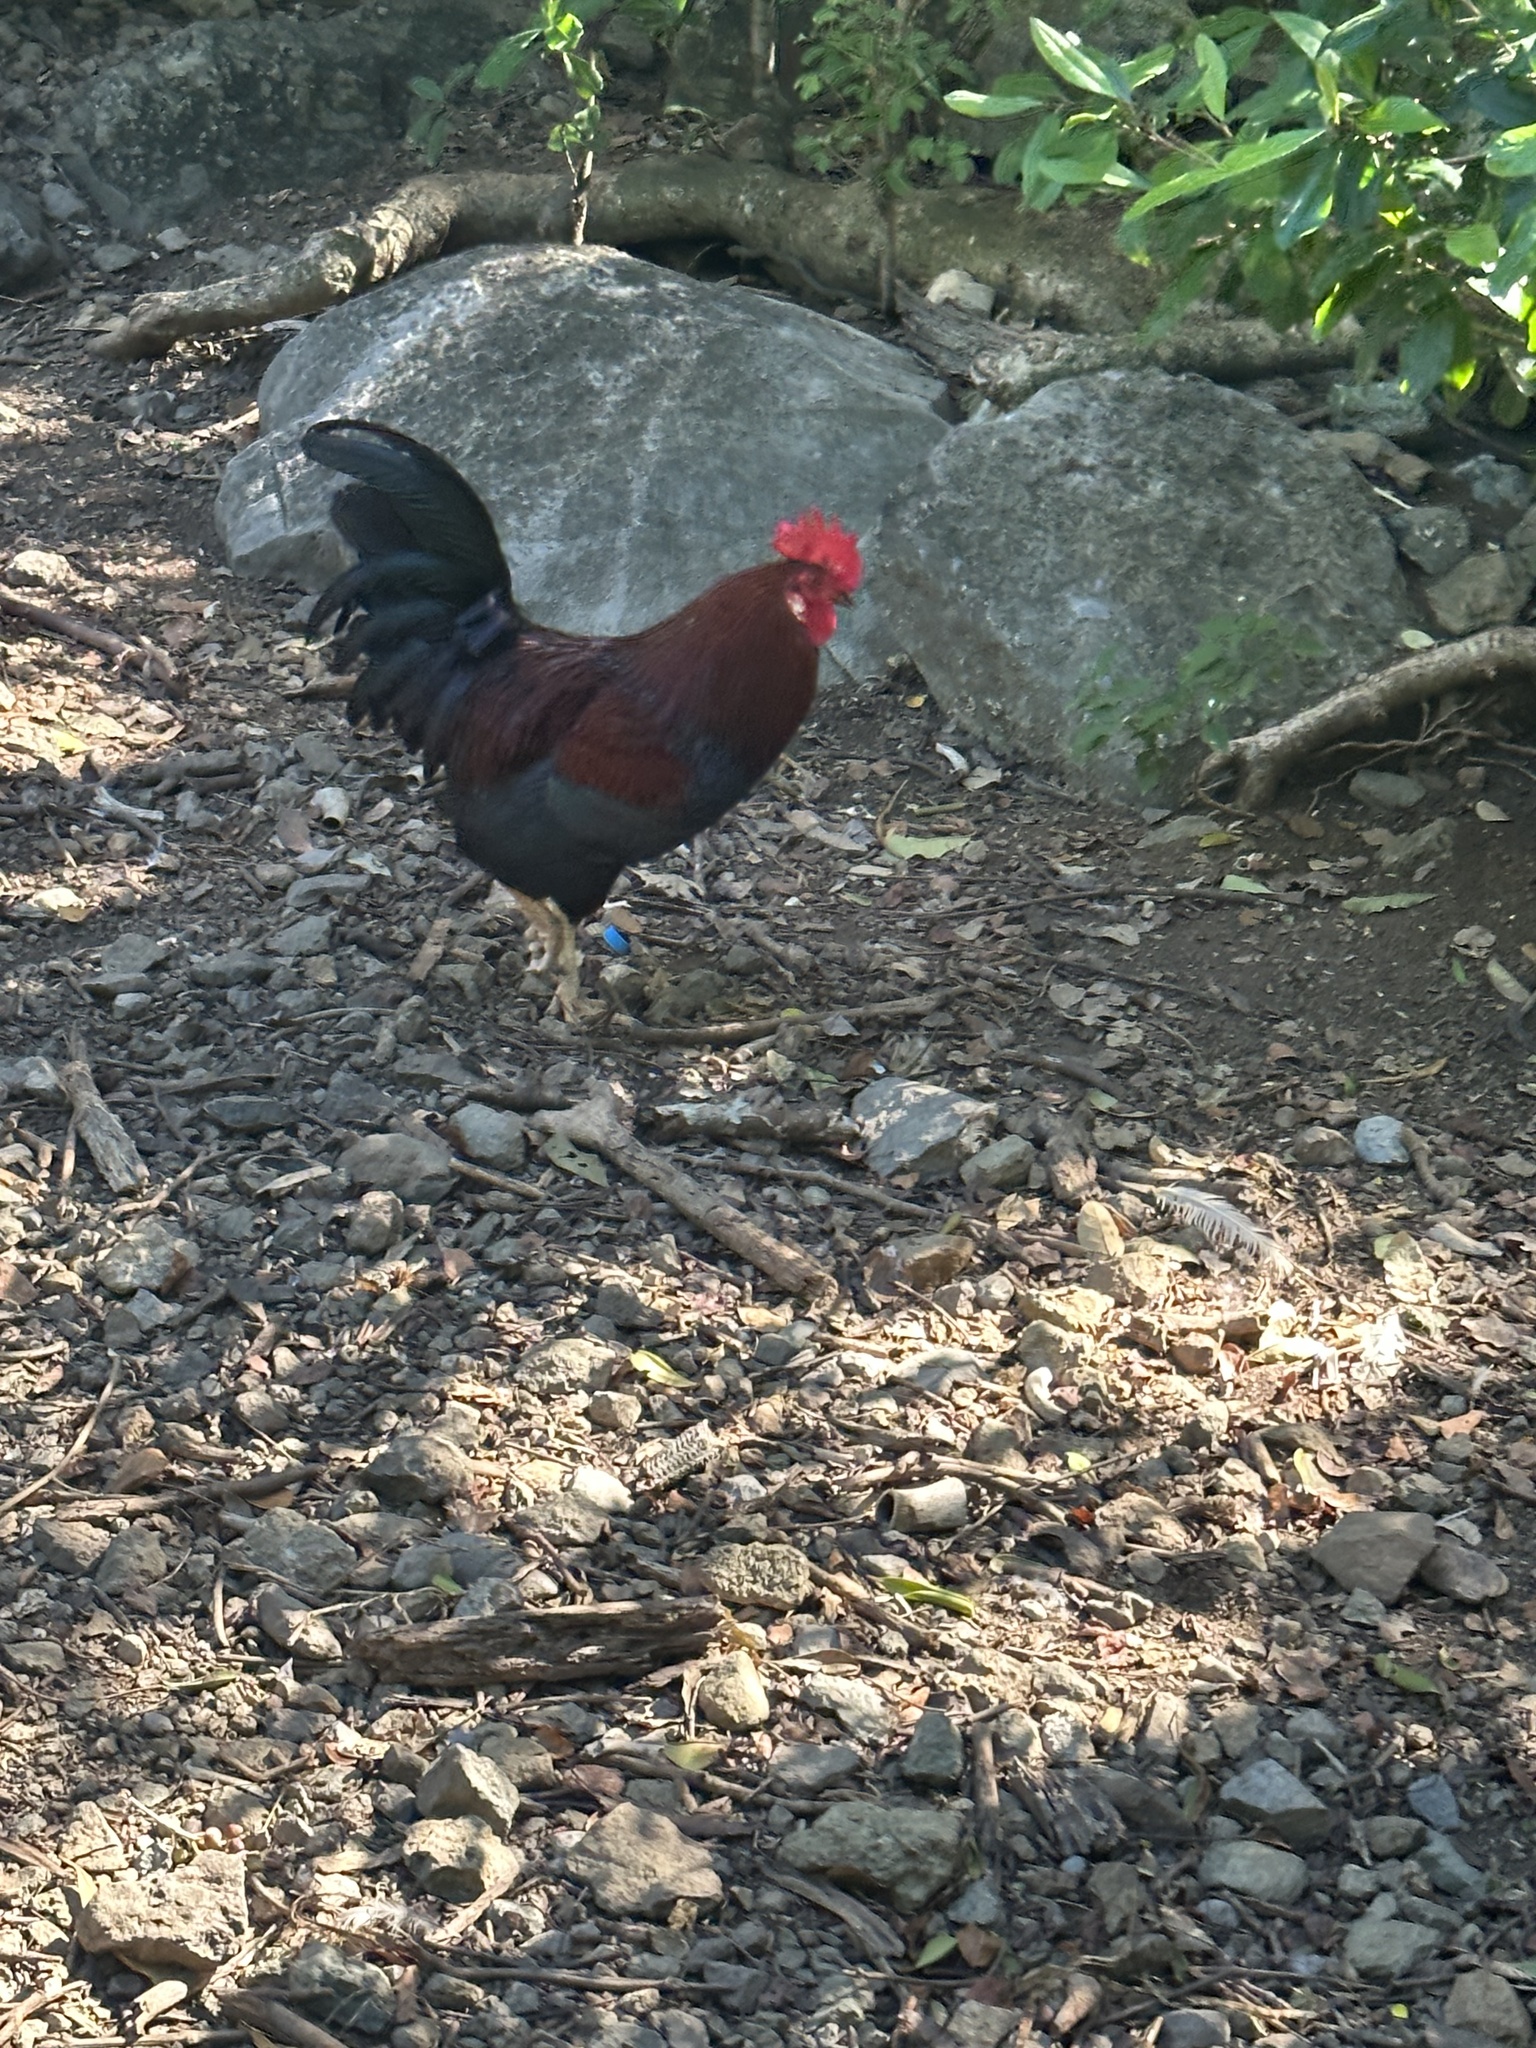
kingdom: Animalia
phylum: Chordata
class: Aves
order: Galliformes
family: Phasianidae
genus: Gallus
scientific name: Gallus gallus
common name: Red junglefowl
